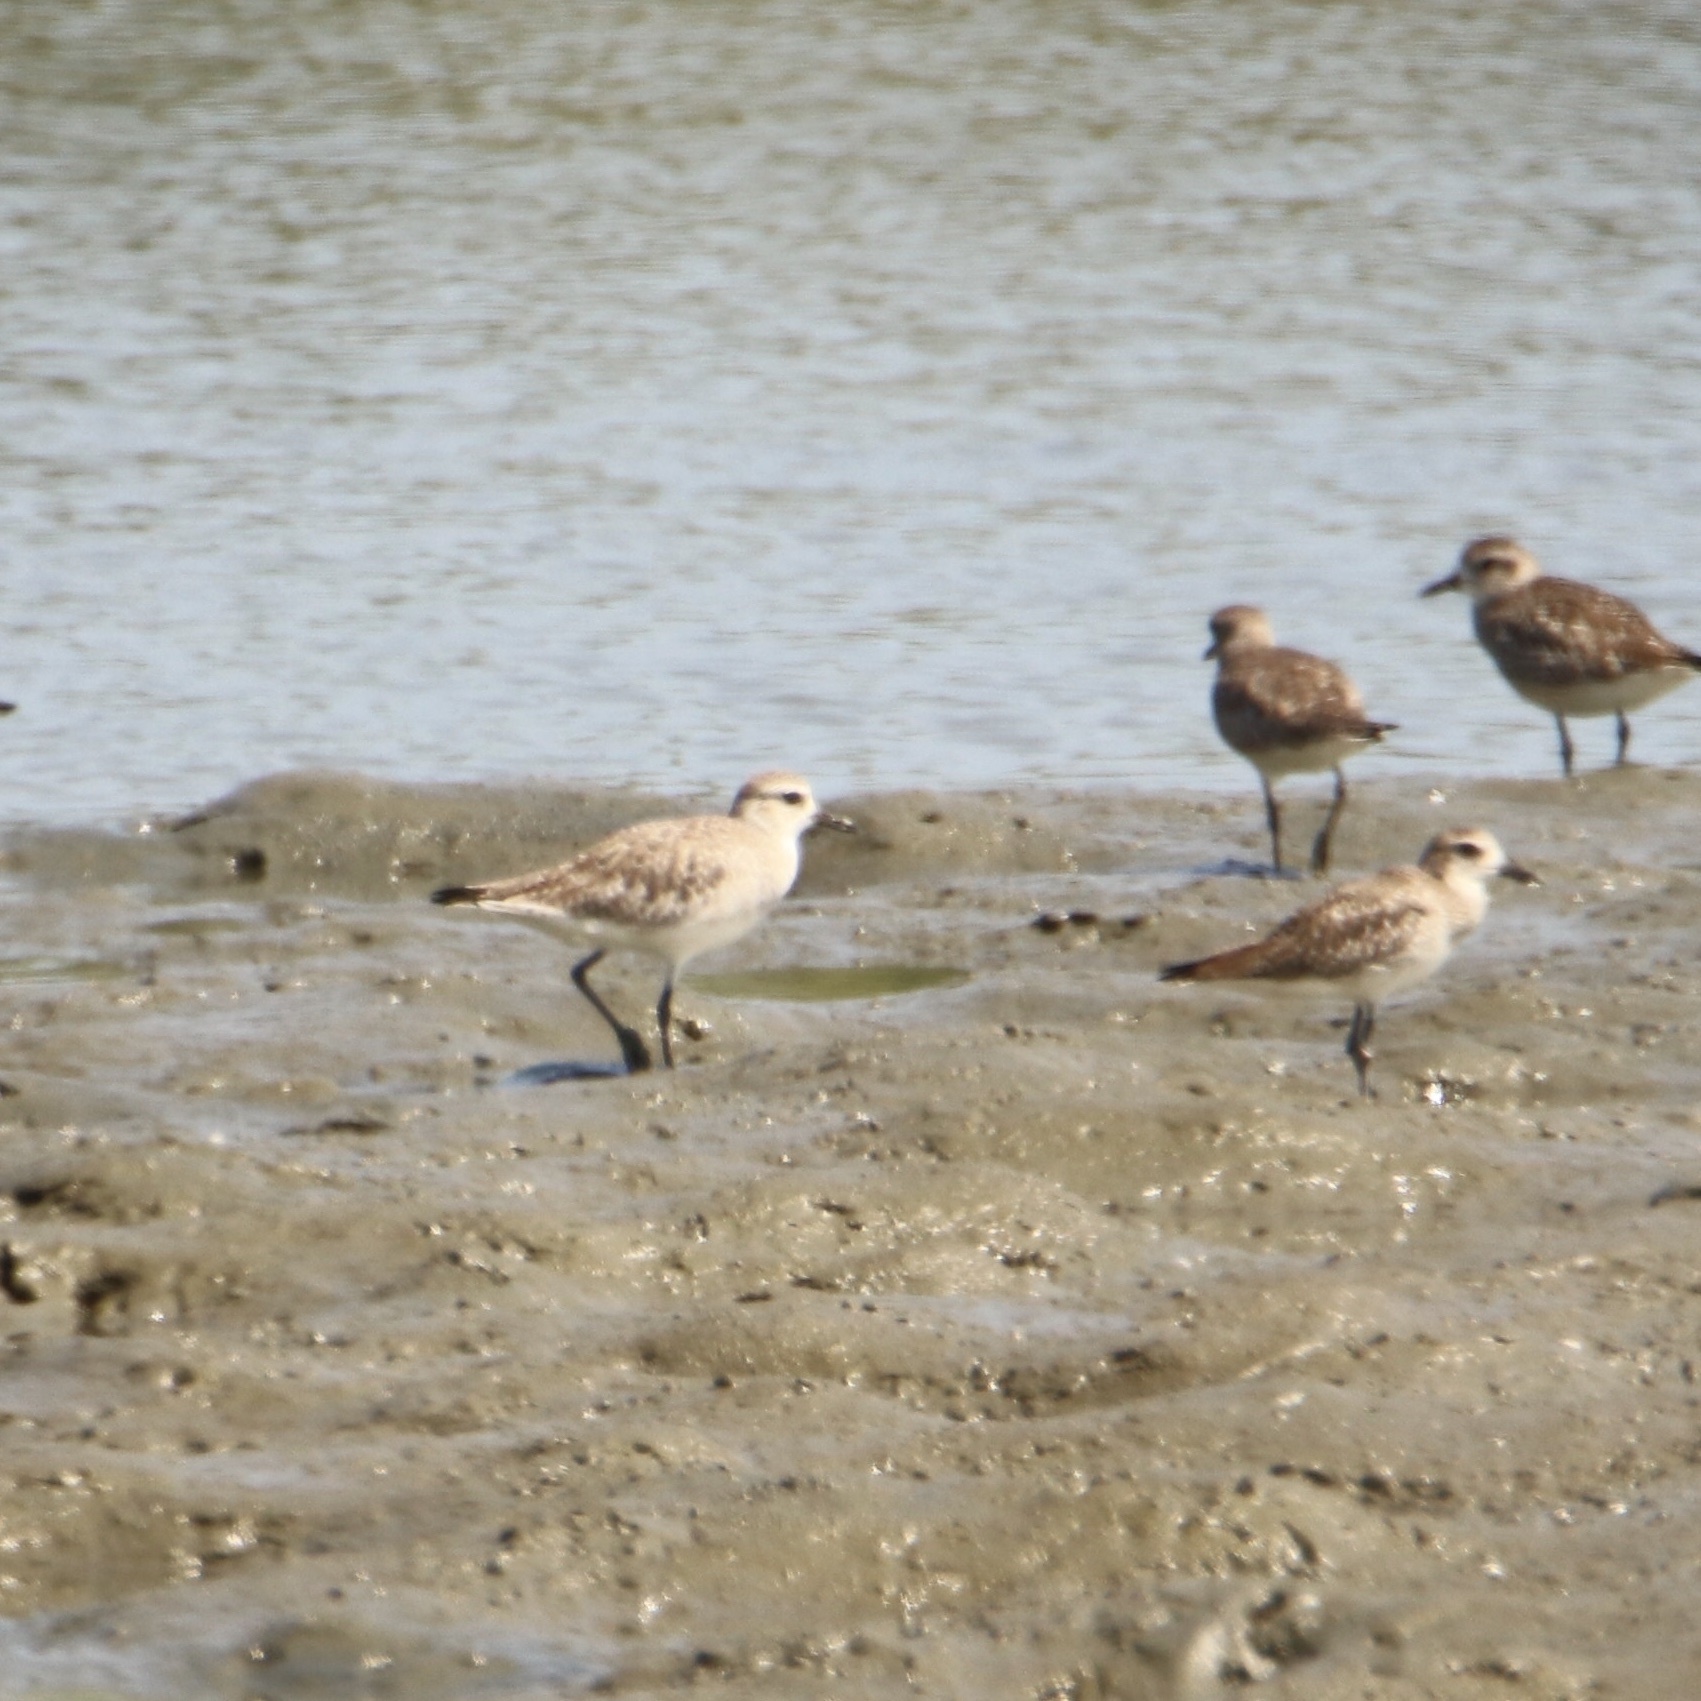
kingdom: Animalia
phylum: Chordata
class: Aves
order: Charadriiformes
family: Charadriidae
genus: Pluvialis
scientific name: Pluvialis squatarola
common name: Grey plover
